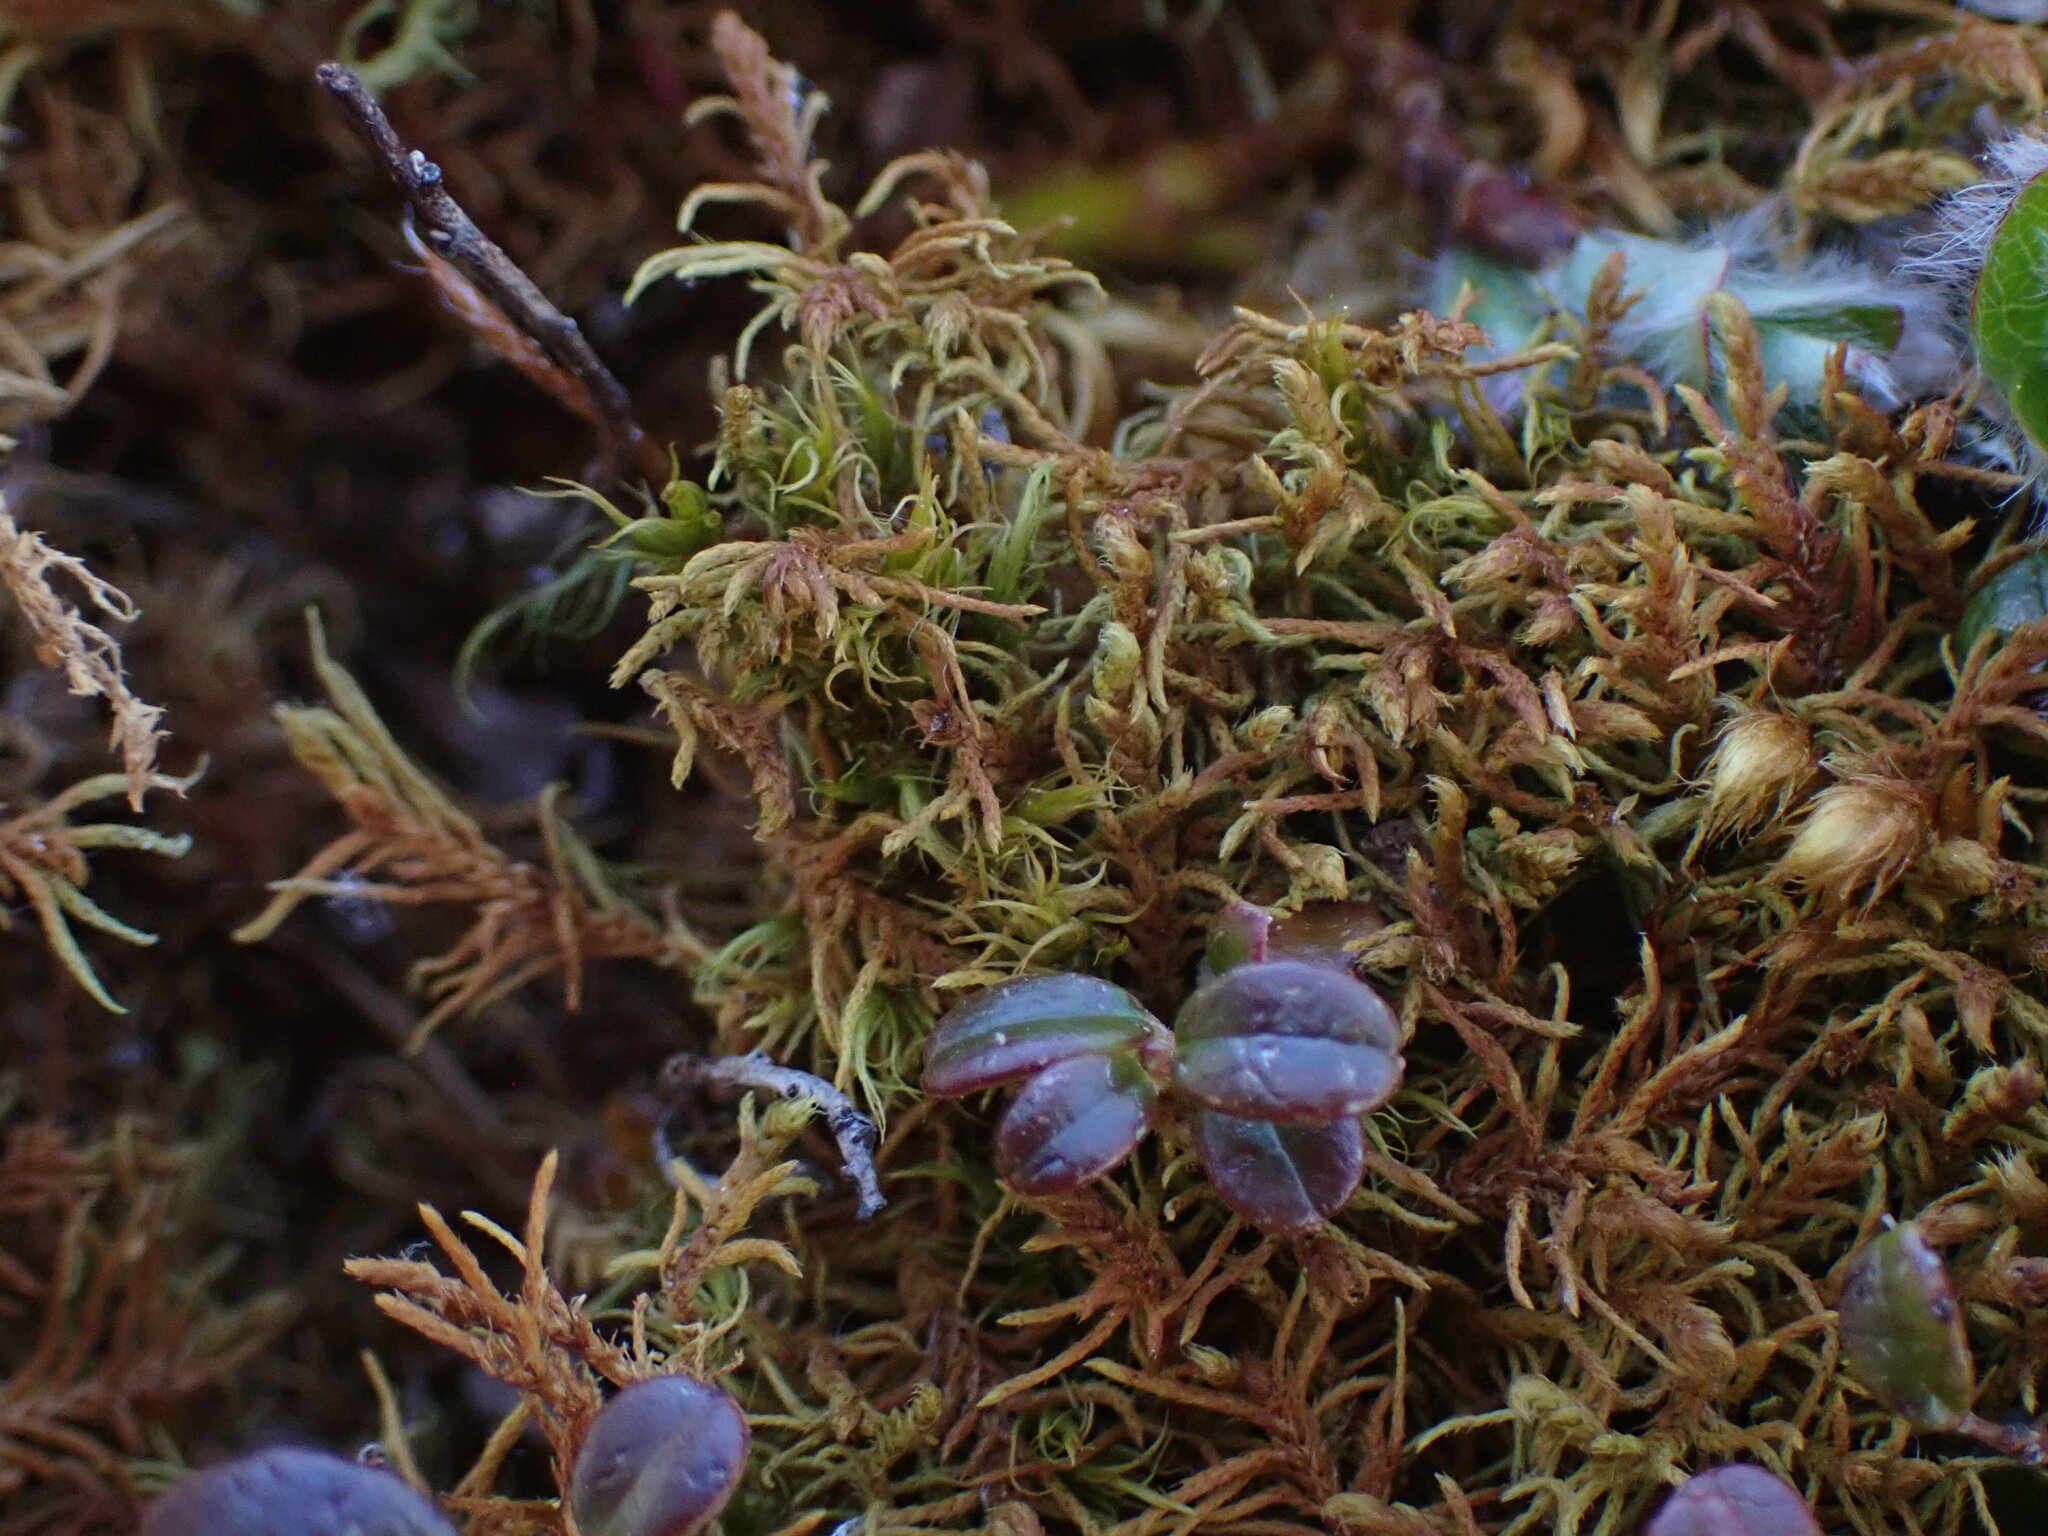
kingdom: Plantae
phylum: Bryophyta
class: Bryopsida
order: Hypnales
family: Thuidiaceae
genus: Abietinella
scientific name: Abietinella abietina
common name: Wiry fern moss
